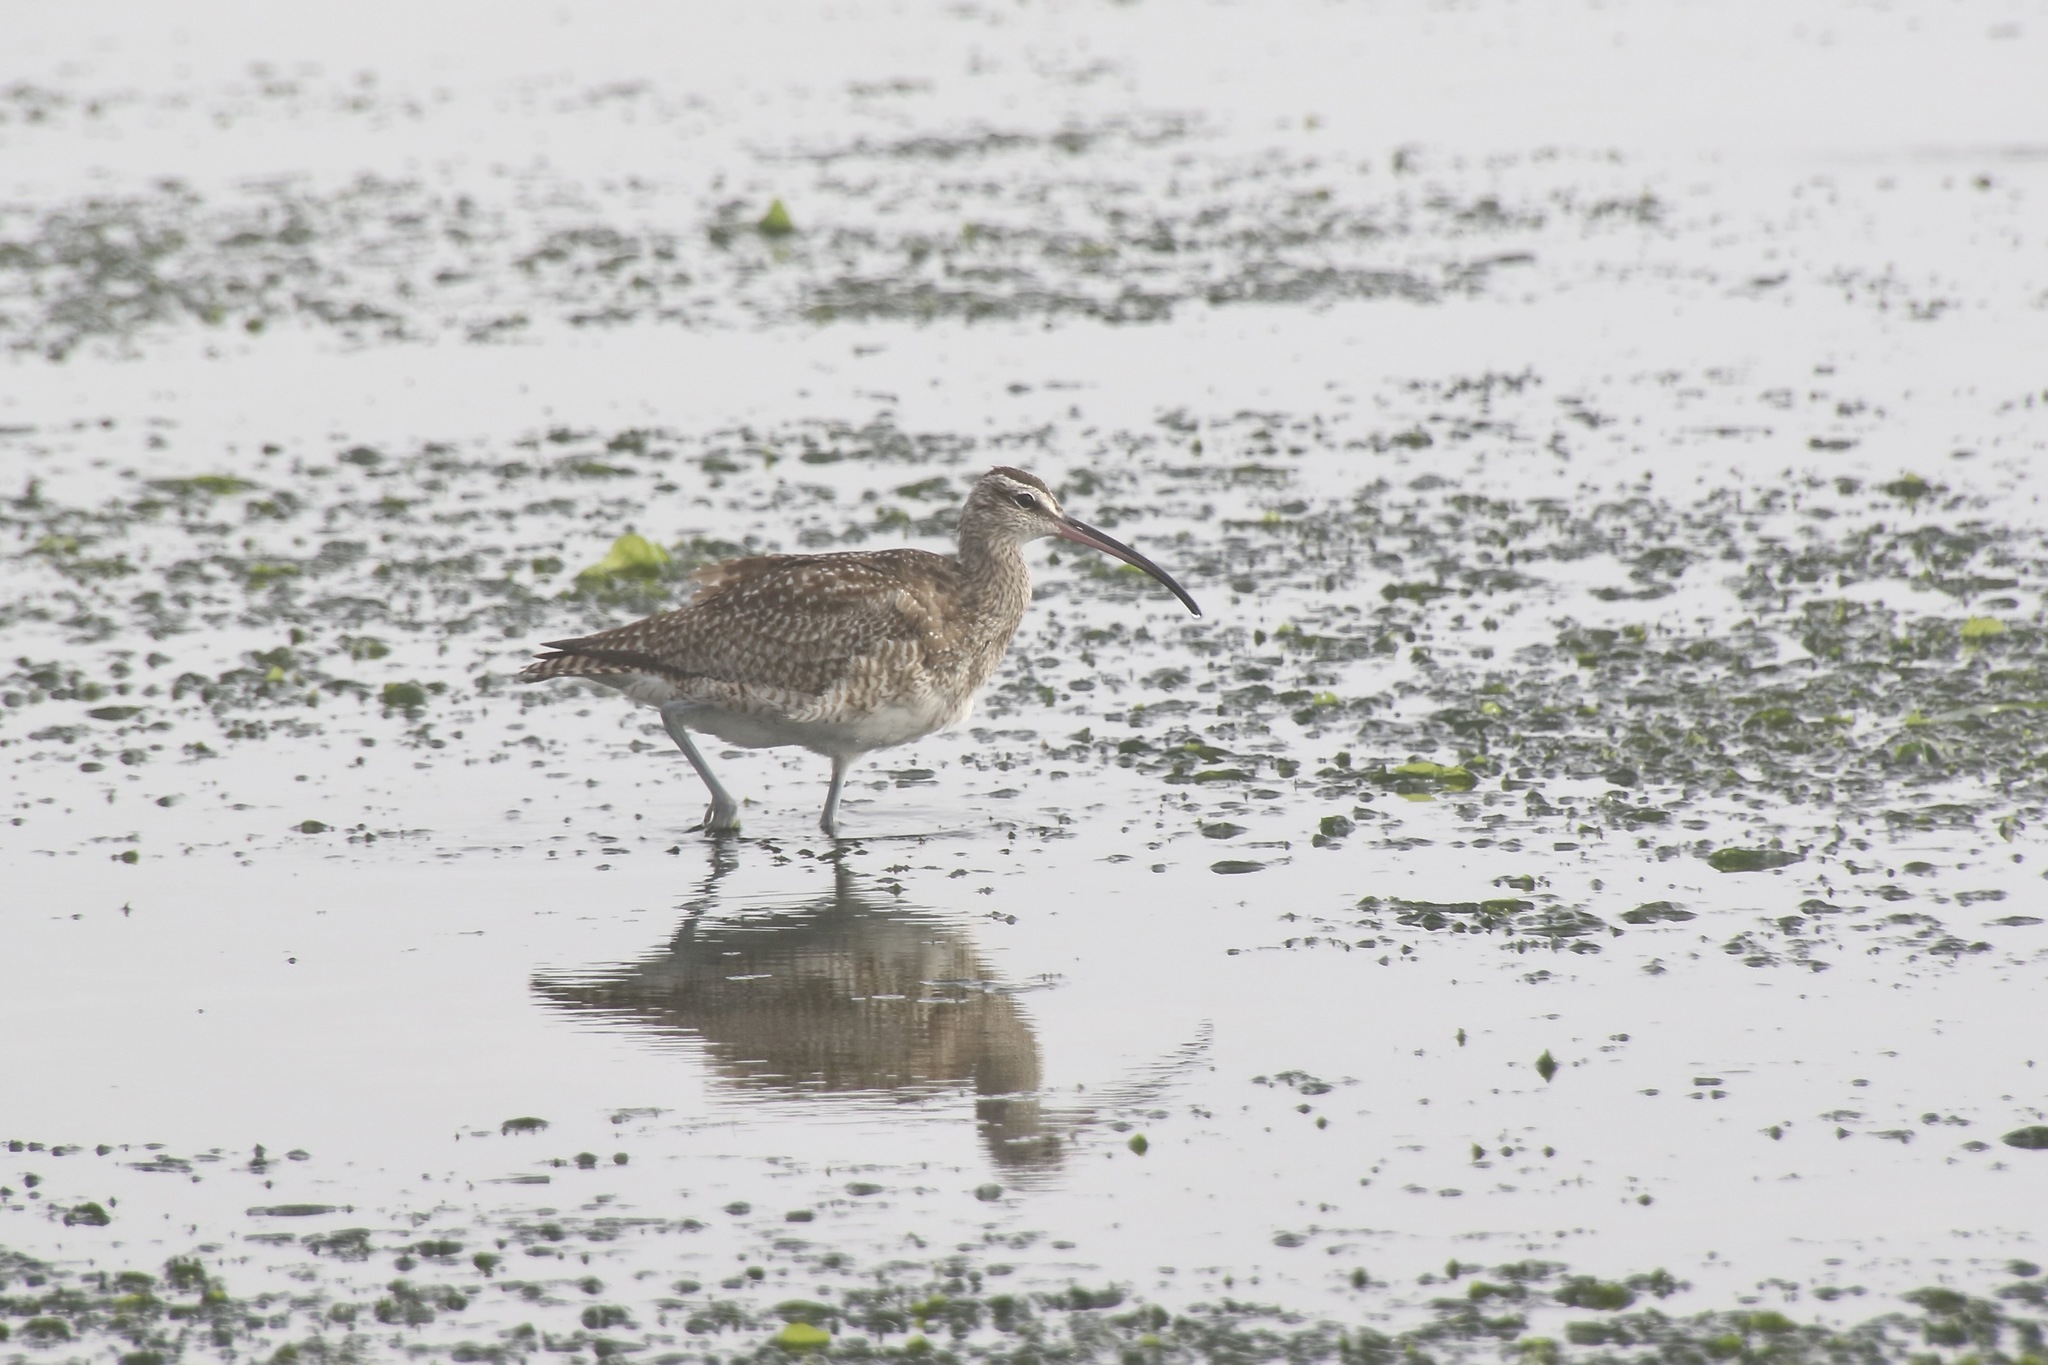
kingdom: Animalia
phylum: Chordata
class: Aves
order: Charadriiformes
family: Scolopacidae
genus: Numenius
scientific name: Numenius phaeopus
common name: Whimbrel
